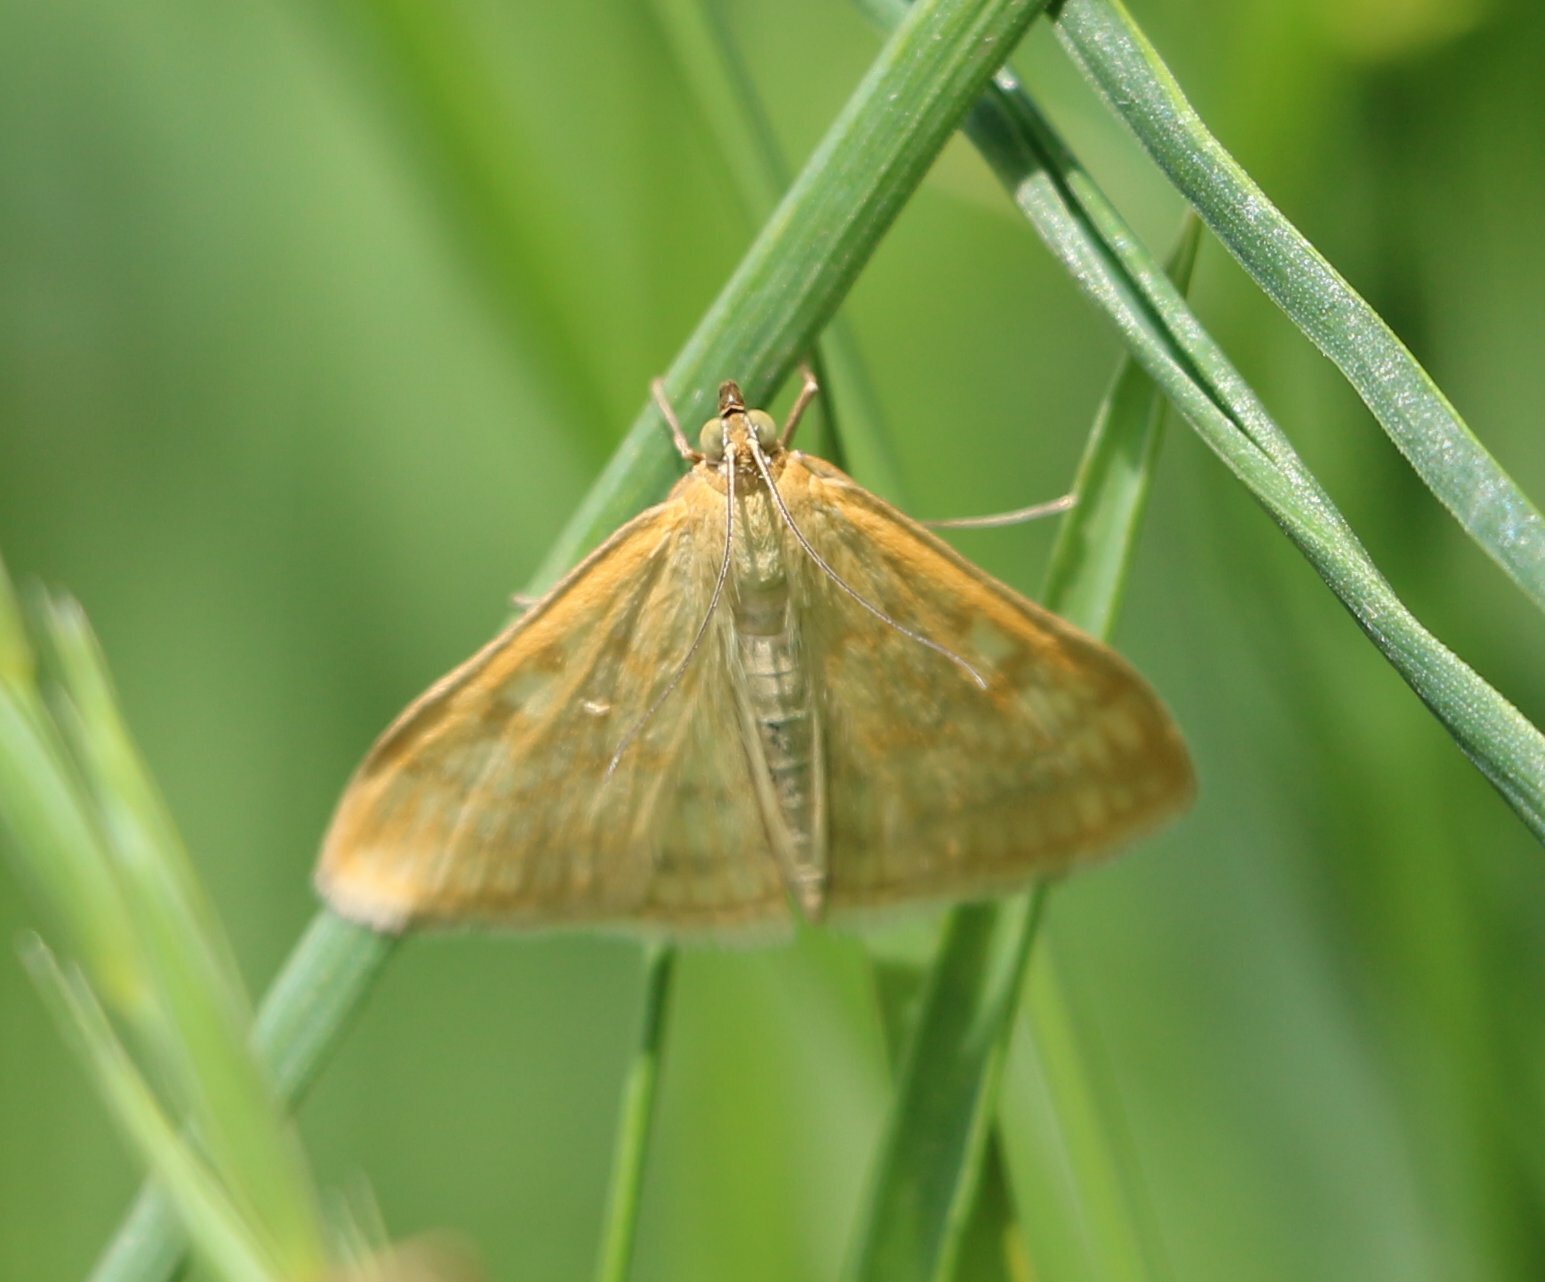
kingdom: Animalia
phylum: Arthropoda
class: Insecta
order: Lepidoptera
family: Crambidae
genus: Sitochroa
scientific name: Sitochroa verticalis
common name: Lesser pearl
